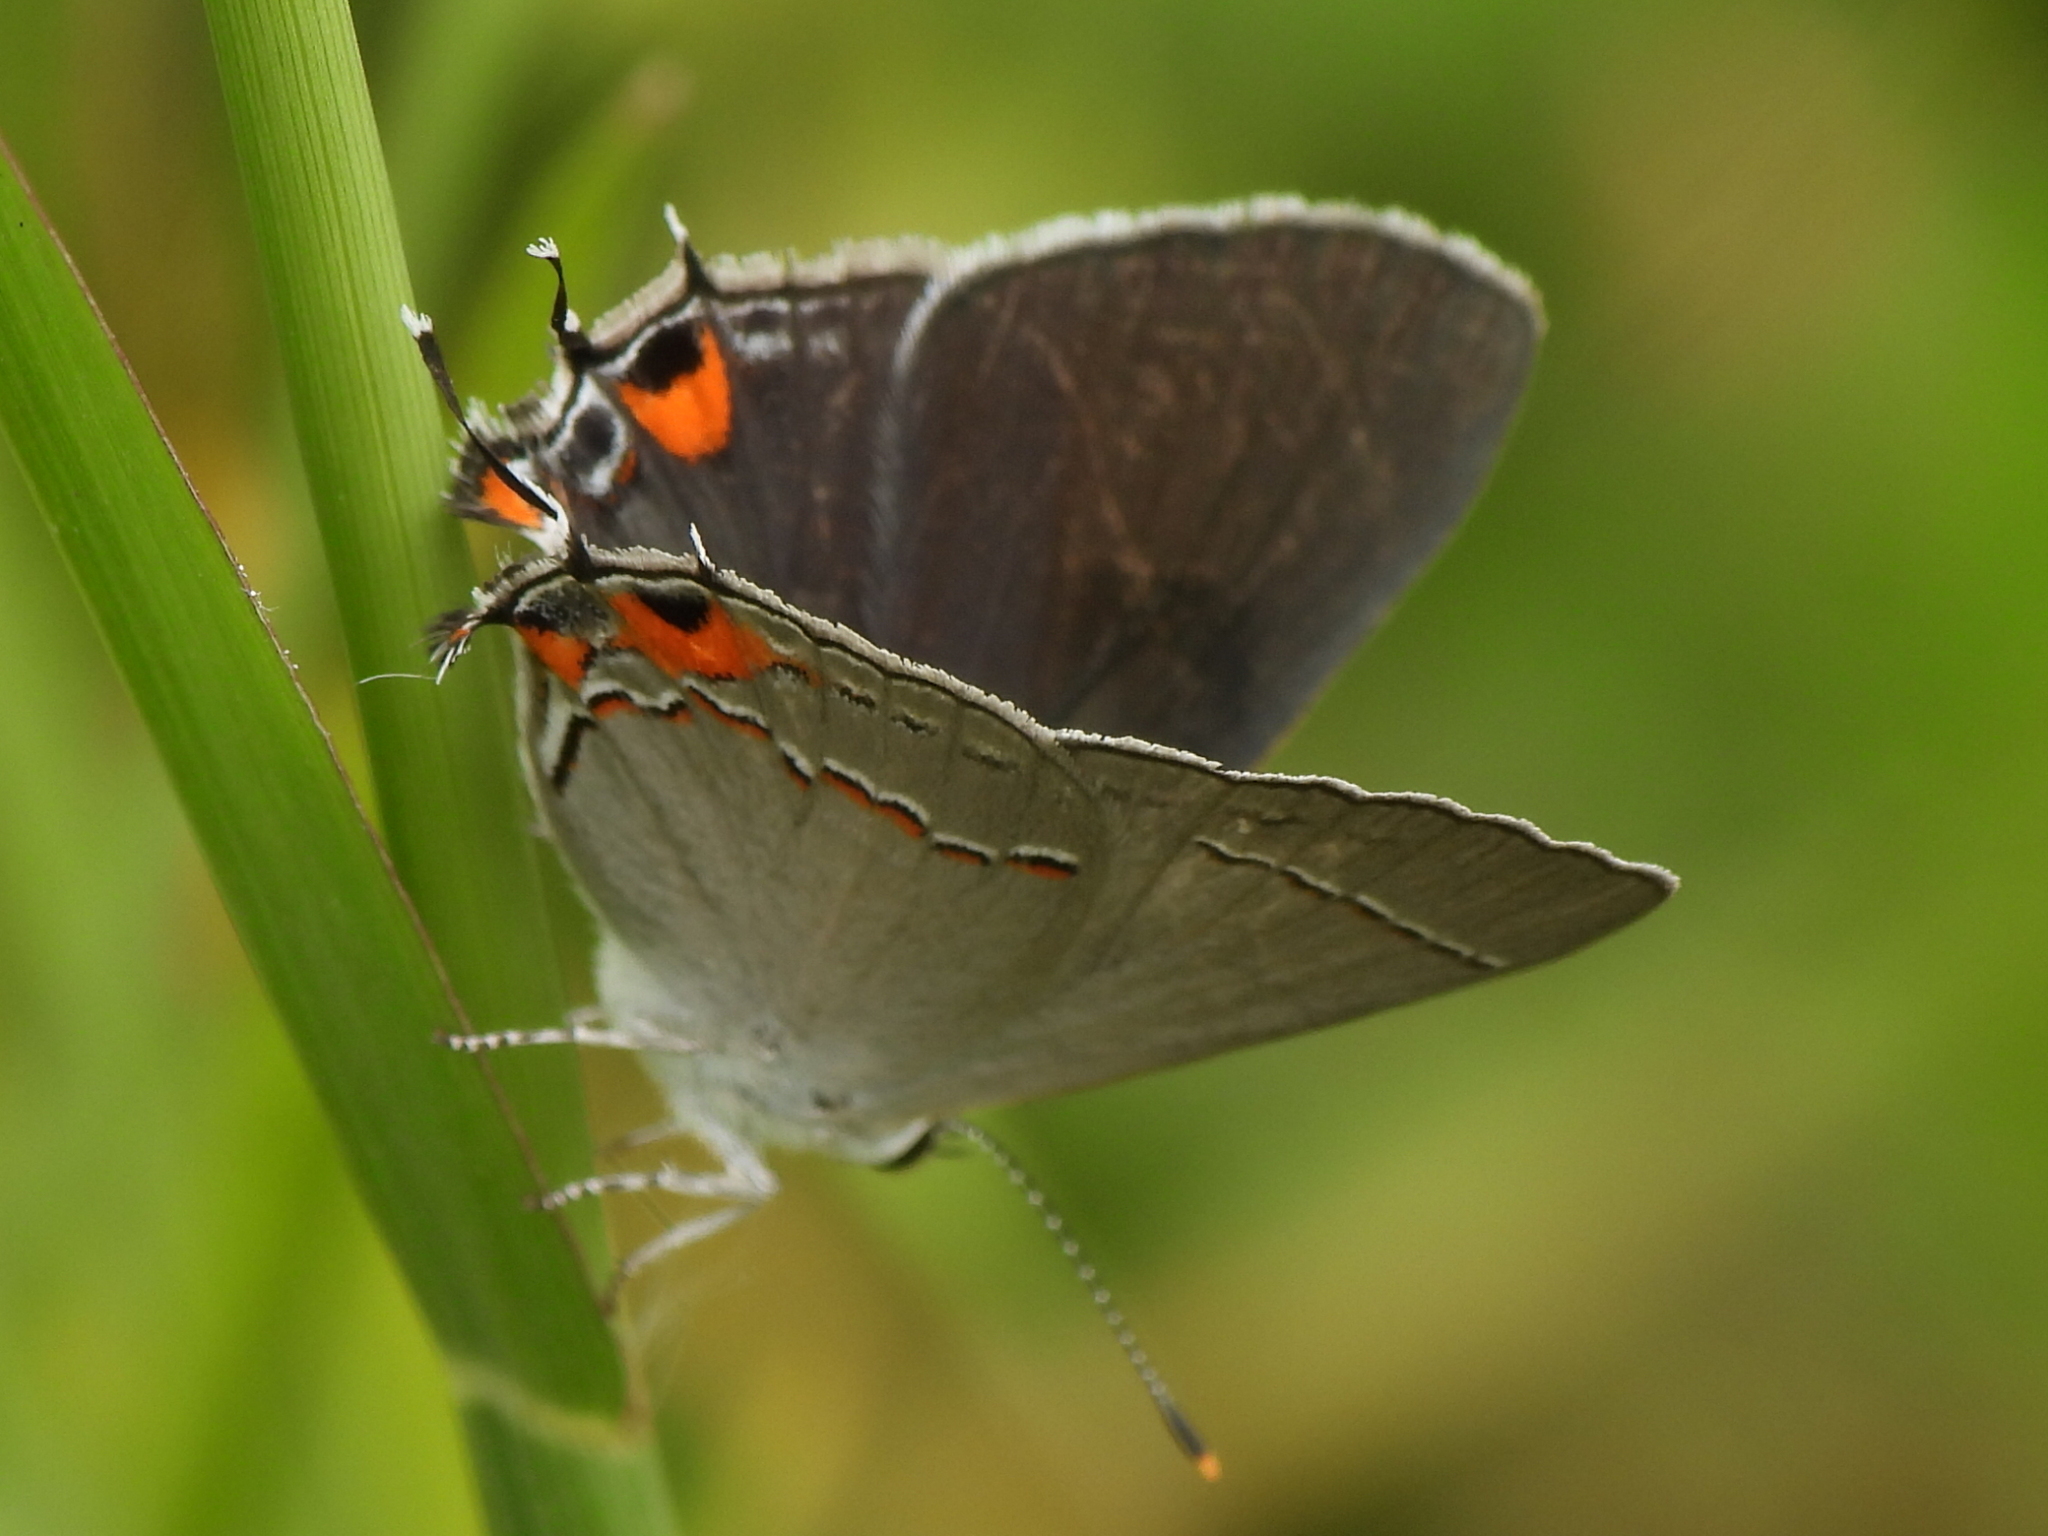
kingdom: Animalia
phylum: Arthropoda
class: Insecta
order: Lepidoptera
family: Lycaenidae
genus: Strymon
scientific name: Strymon melinus
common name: Gray hairstreak
